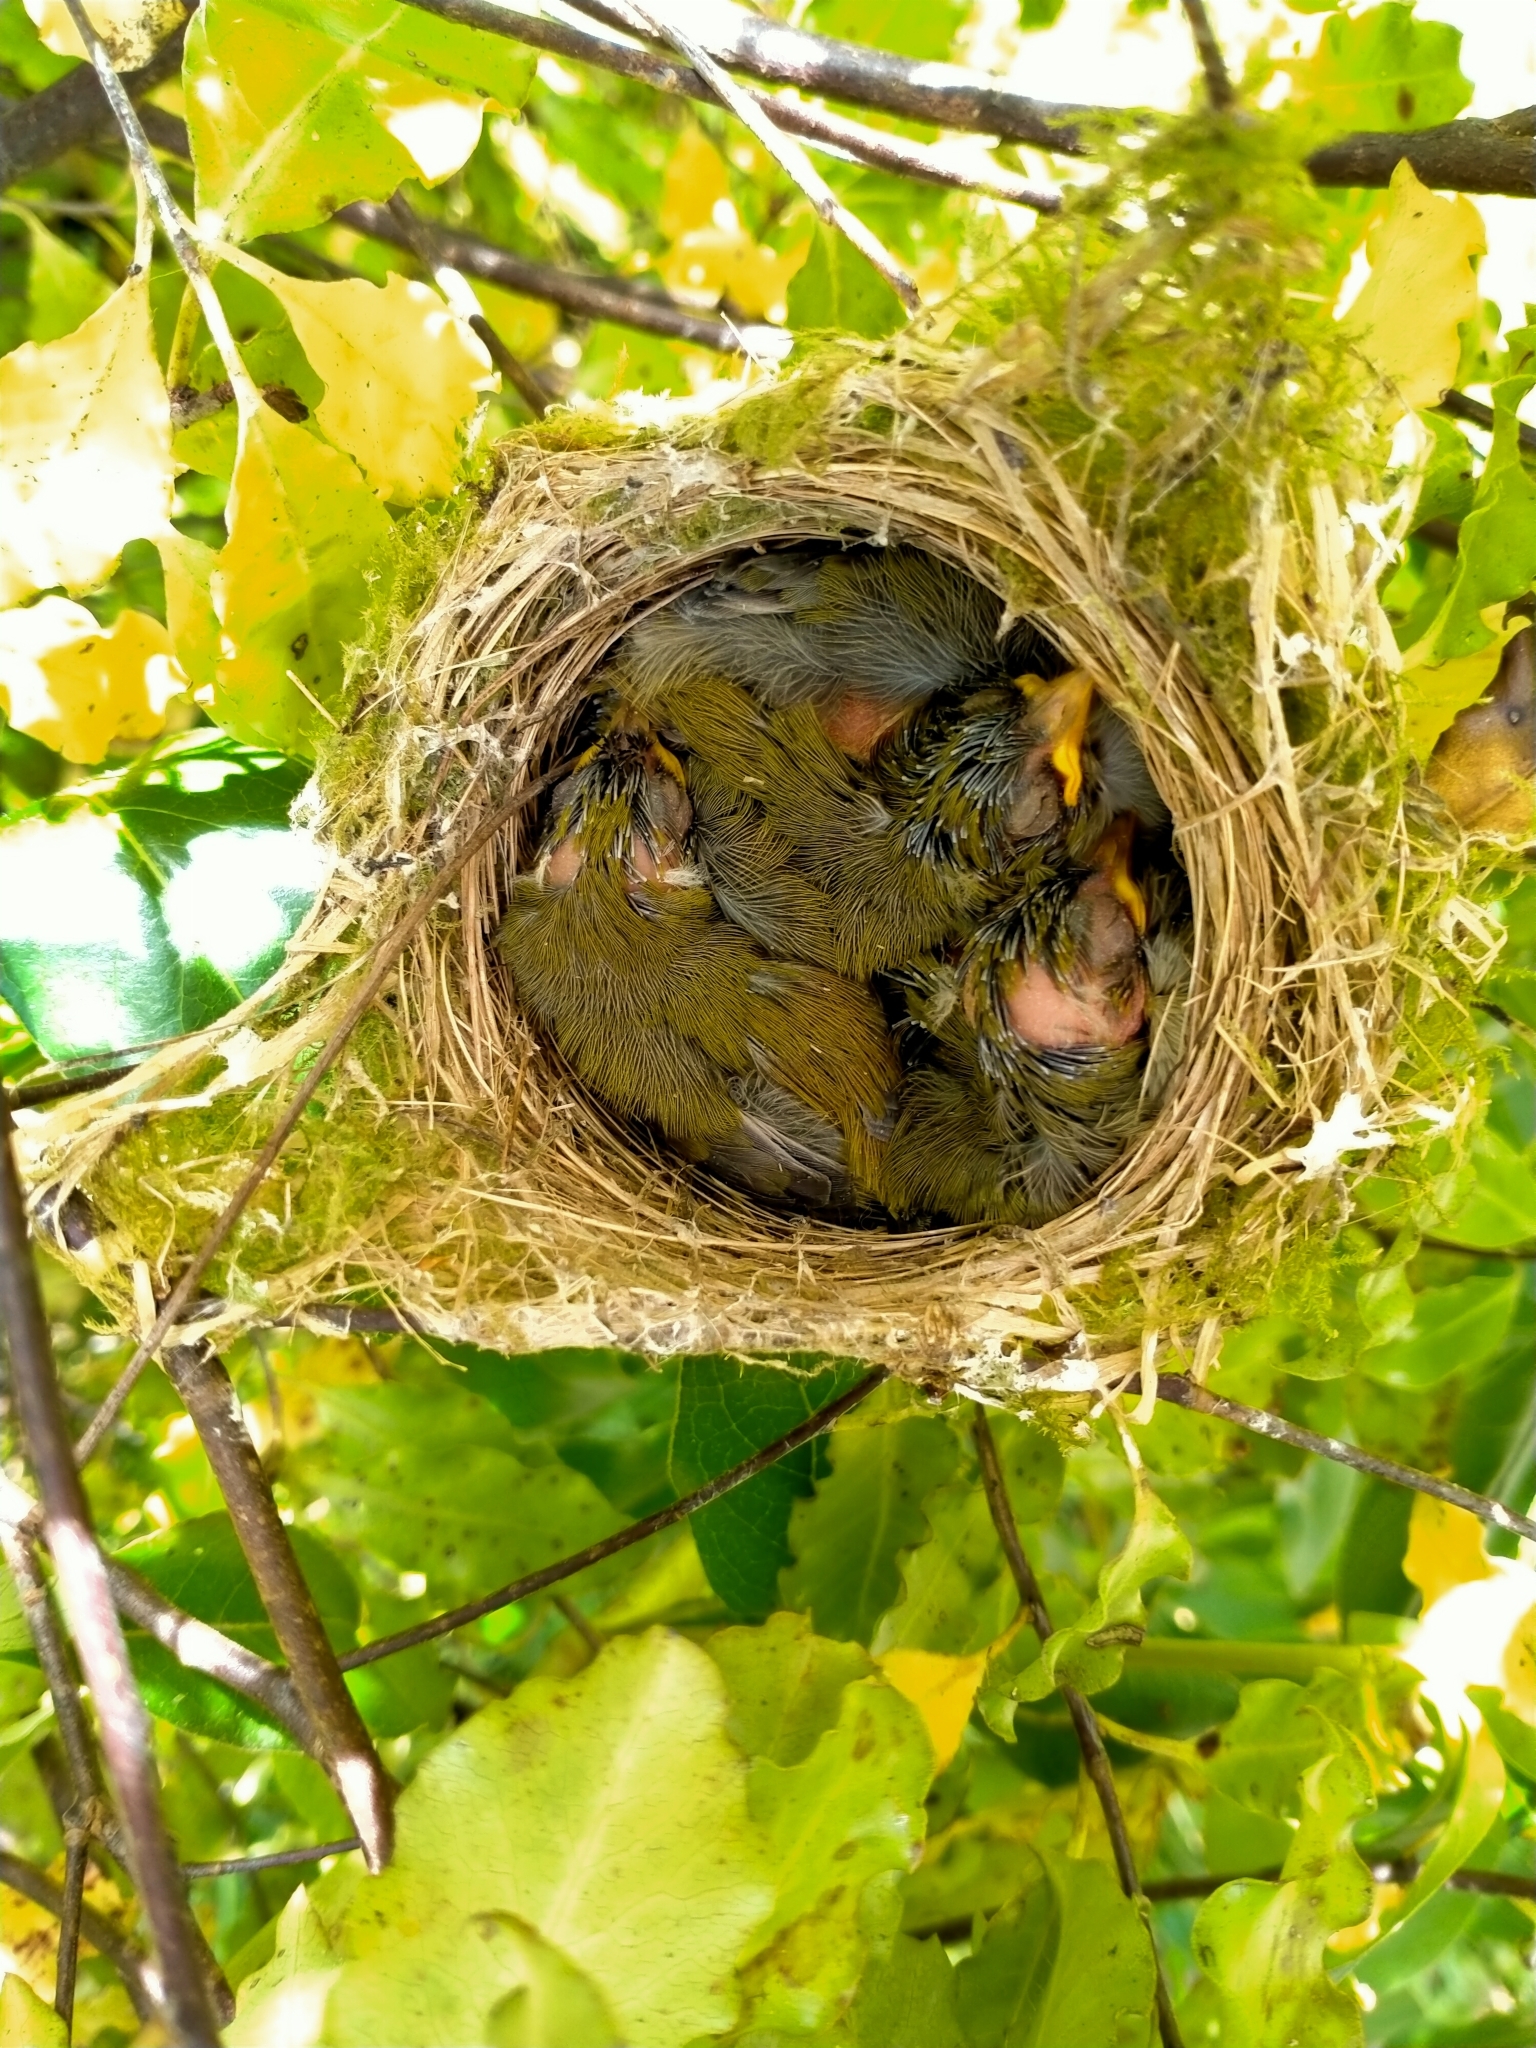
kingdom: Animalia
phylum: Chordata
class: Aves
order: Passeriformes
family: Zosteropidae
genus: Zosterops
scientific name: Zosterops lateralis
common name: Silvereye
